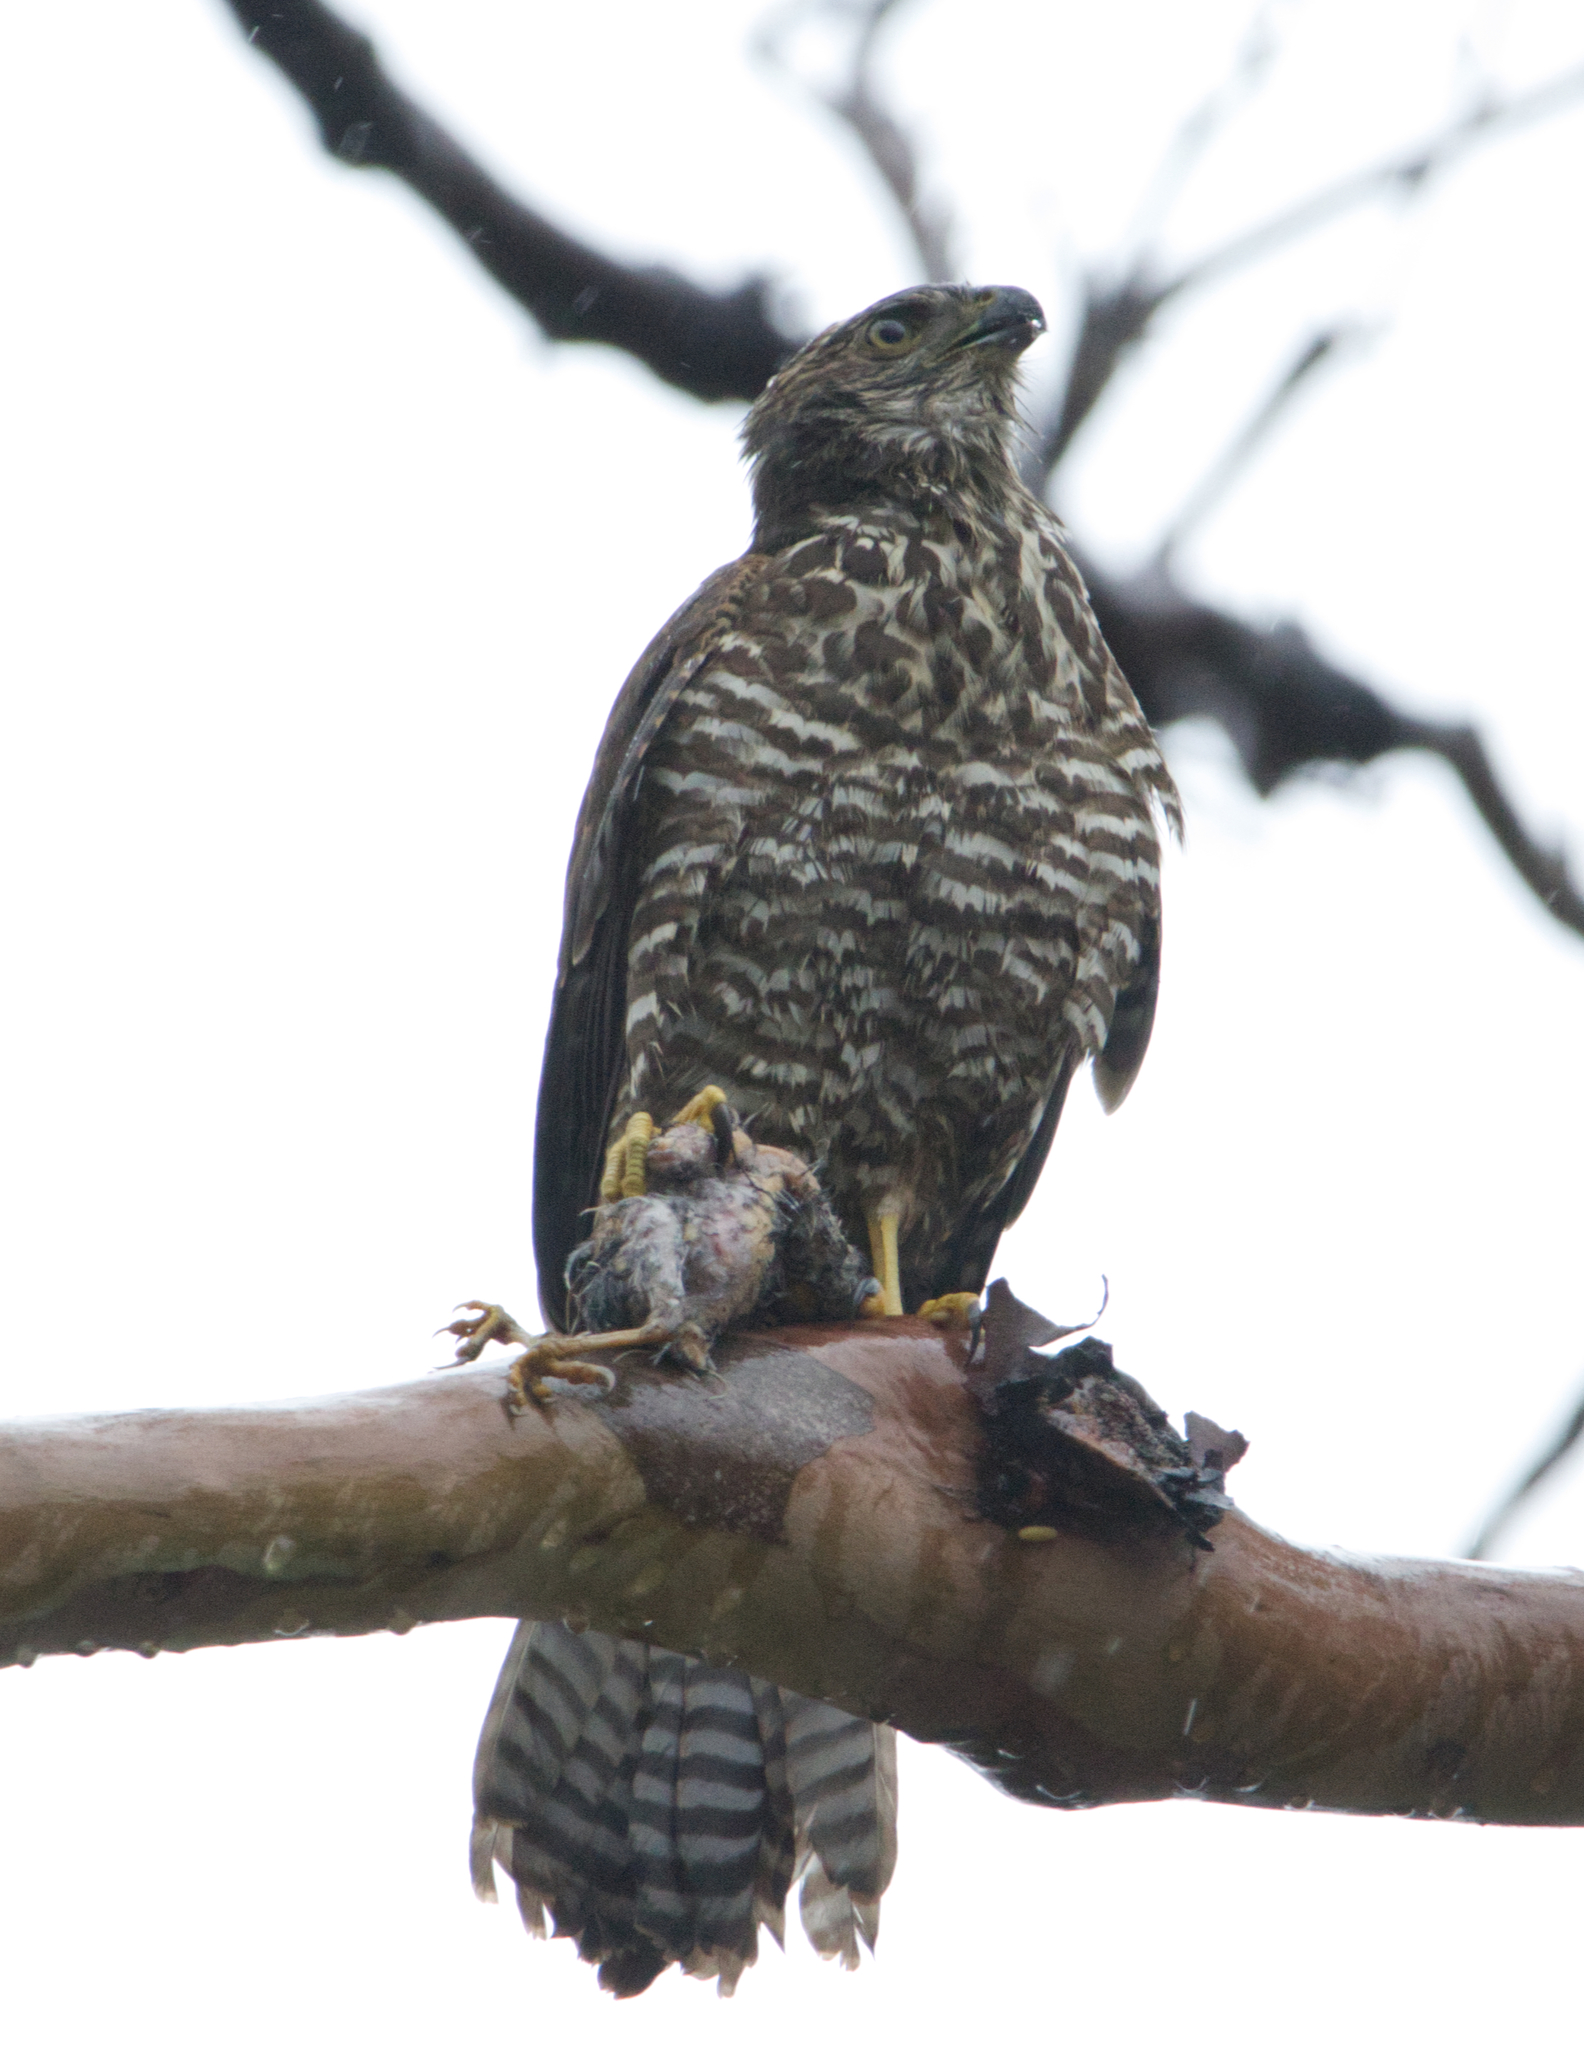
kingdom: Animalia
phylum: Chordata
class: Aves
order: Accipitriformes
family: Accipitridae
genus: Accipiter
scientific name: Accipiter fasciatus
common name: Brown goshawk
